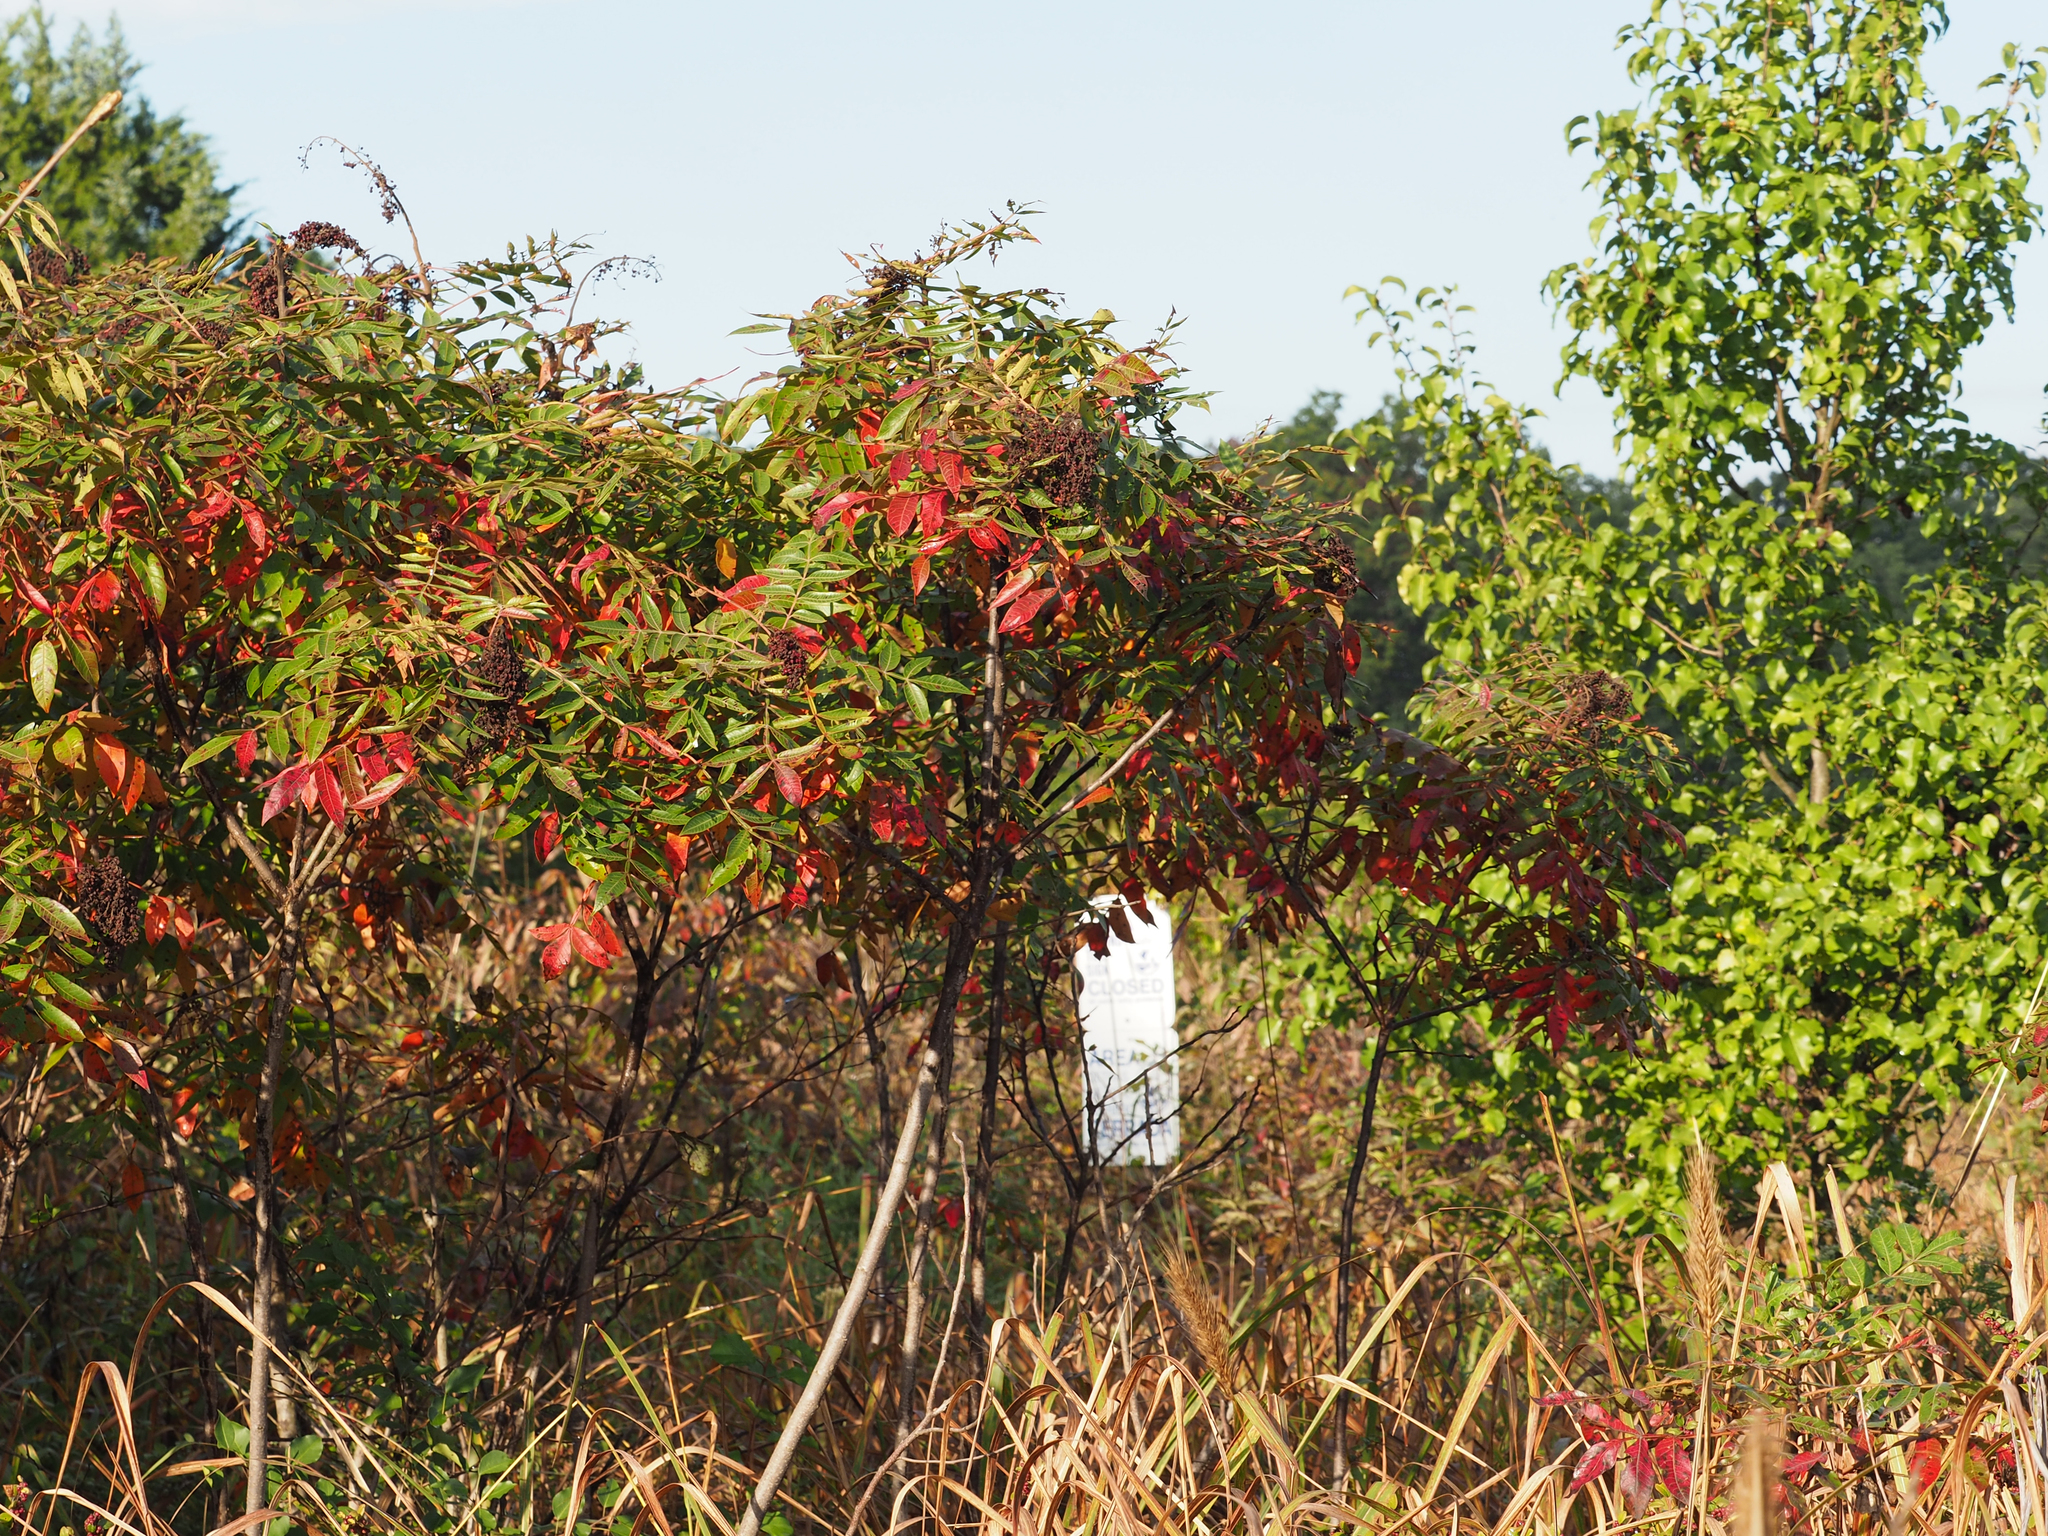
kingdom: Plantae
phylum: Tracheophyta
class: Magnoliopsida
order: Sapindales
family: Anacardiaceae
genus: Rhus
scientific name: Rhus copallina
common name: Shining sumac
